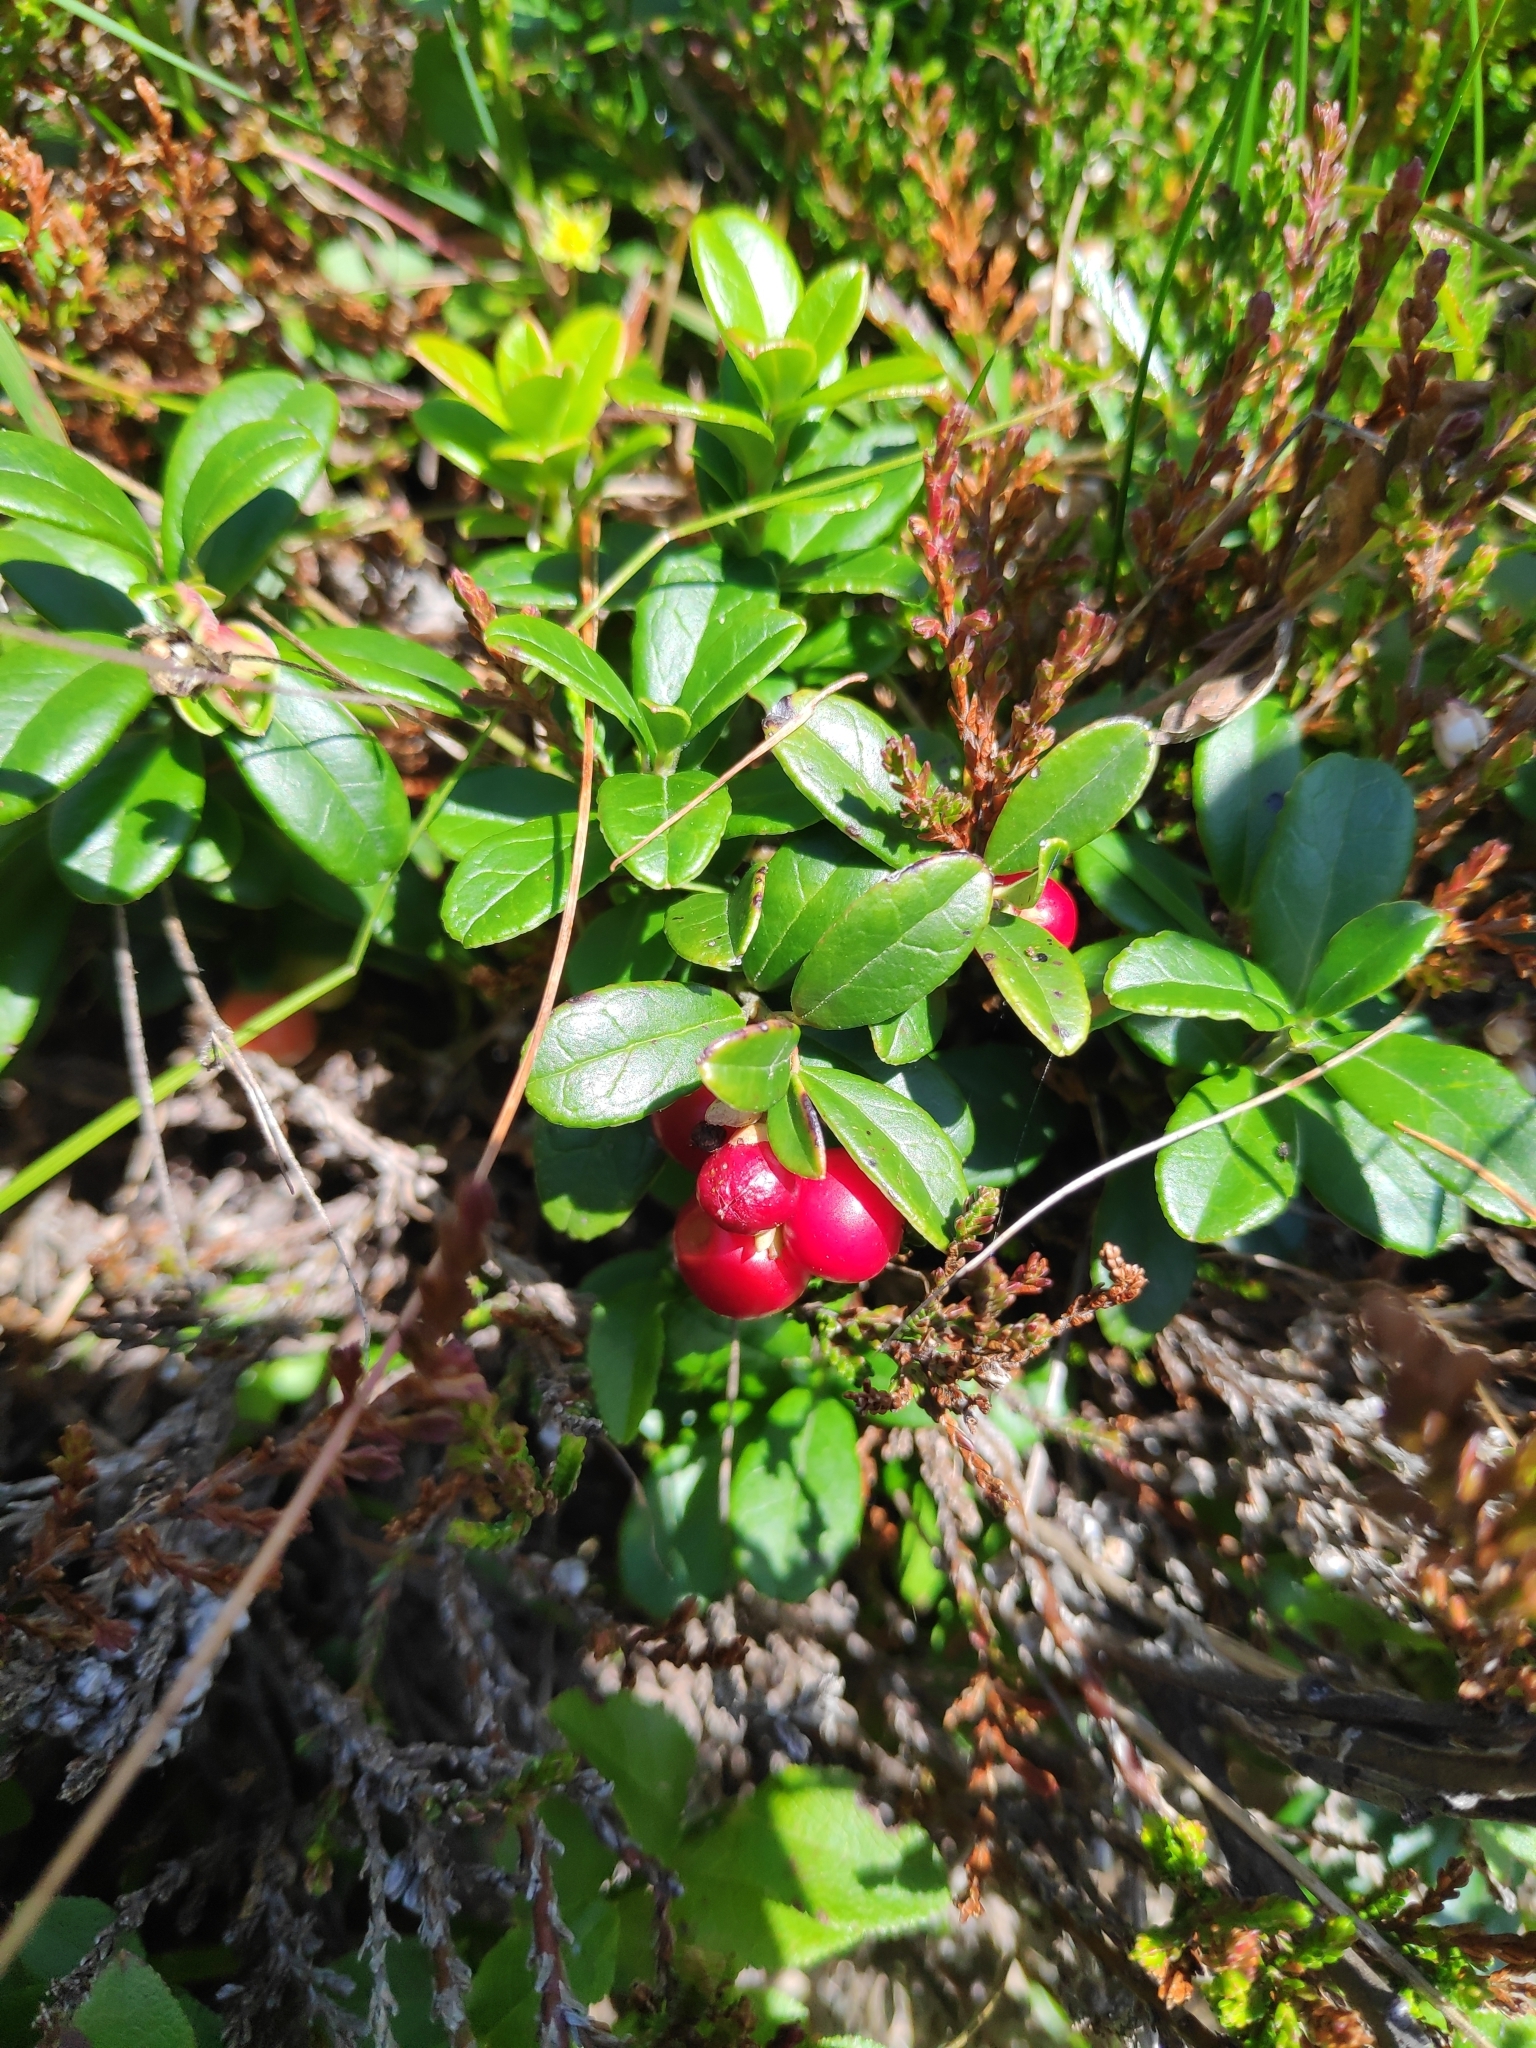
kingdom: Plantae
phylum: Tracheophyta
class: Magnoliopsida
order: Ericales
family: Ericaceae
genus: Vaccinium
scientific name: Vaccinium vitis-idaea
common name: Cowberry
